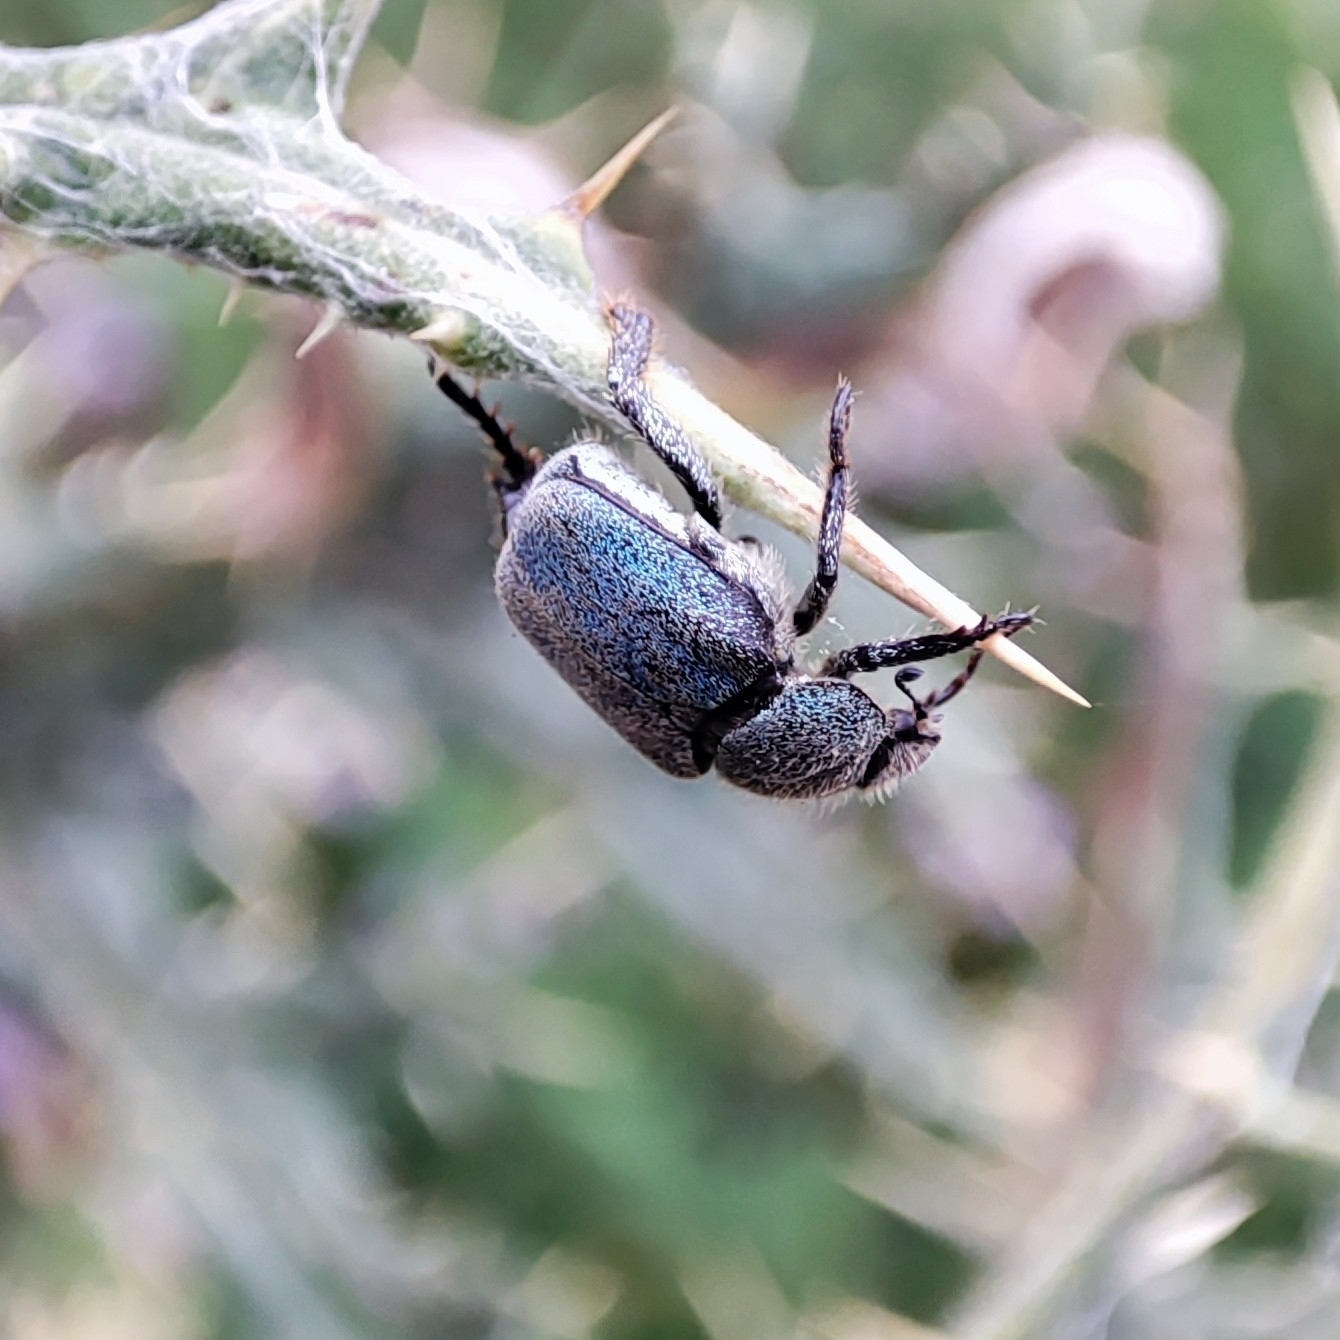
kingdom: Animalia
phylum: Arthropoda
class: Insecta
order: Coleoptera
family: Scarabaeidae
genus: Hoplia
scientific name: Hoplia pollinosa
